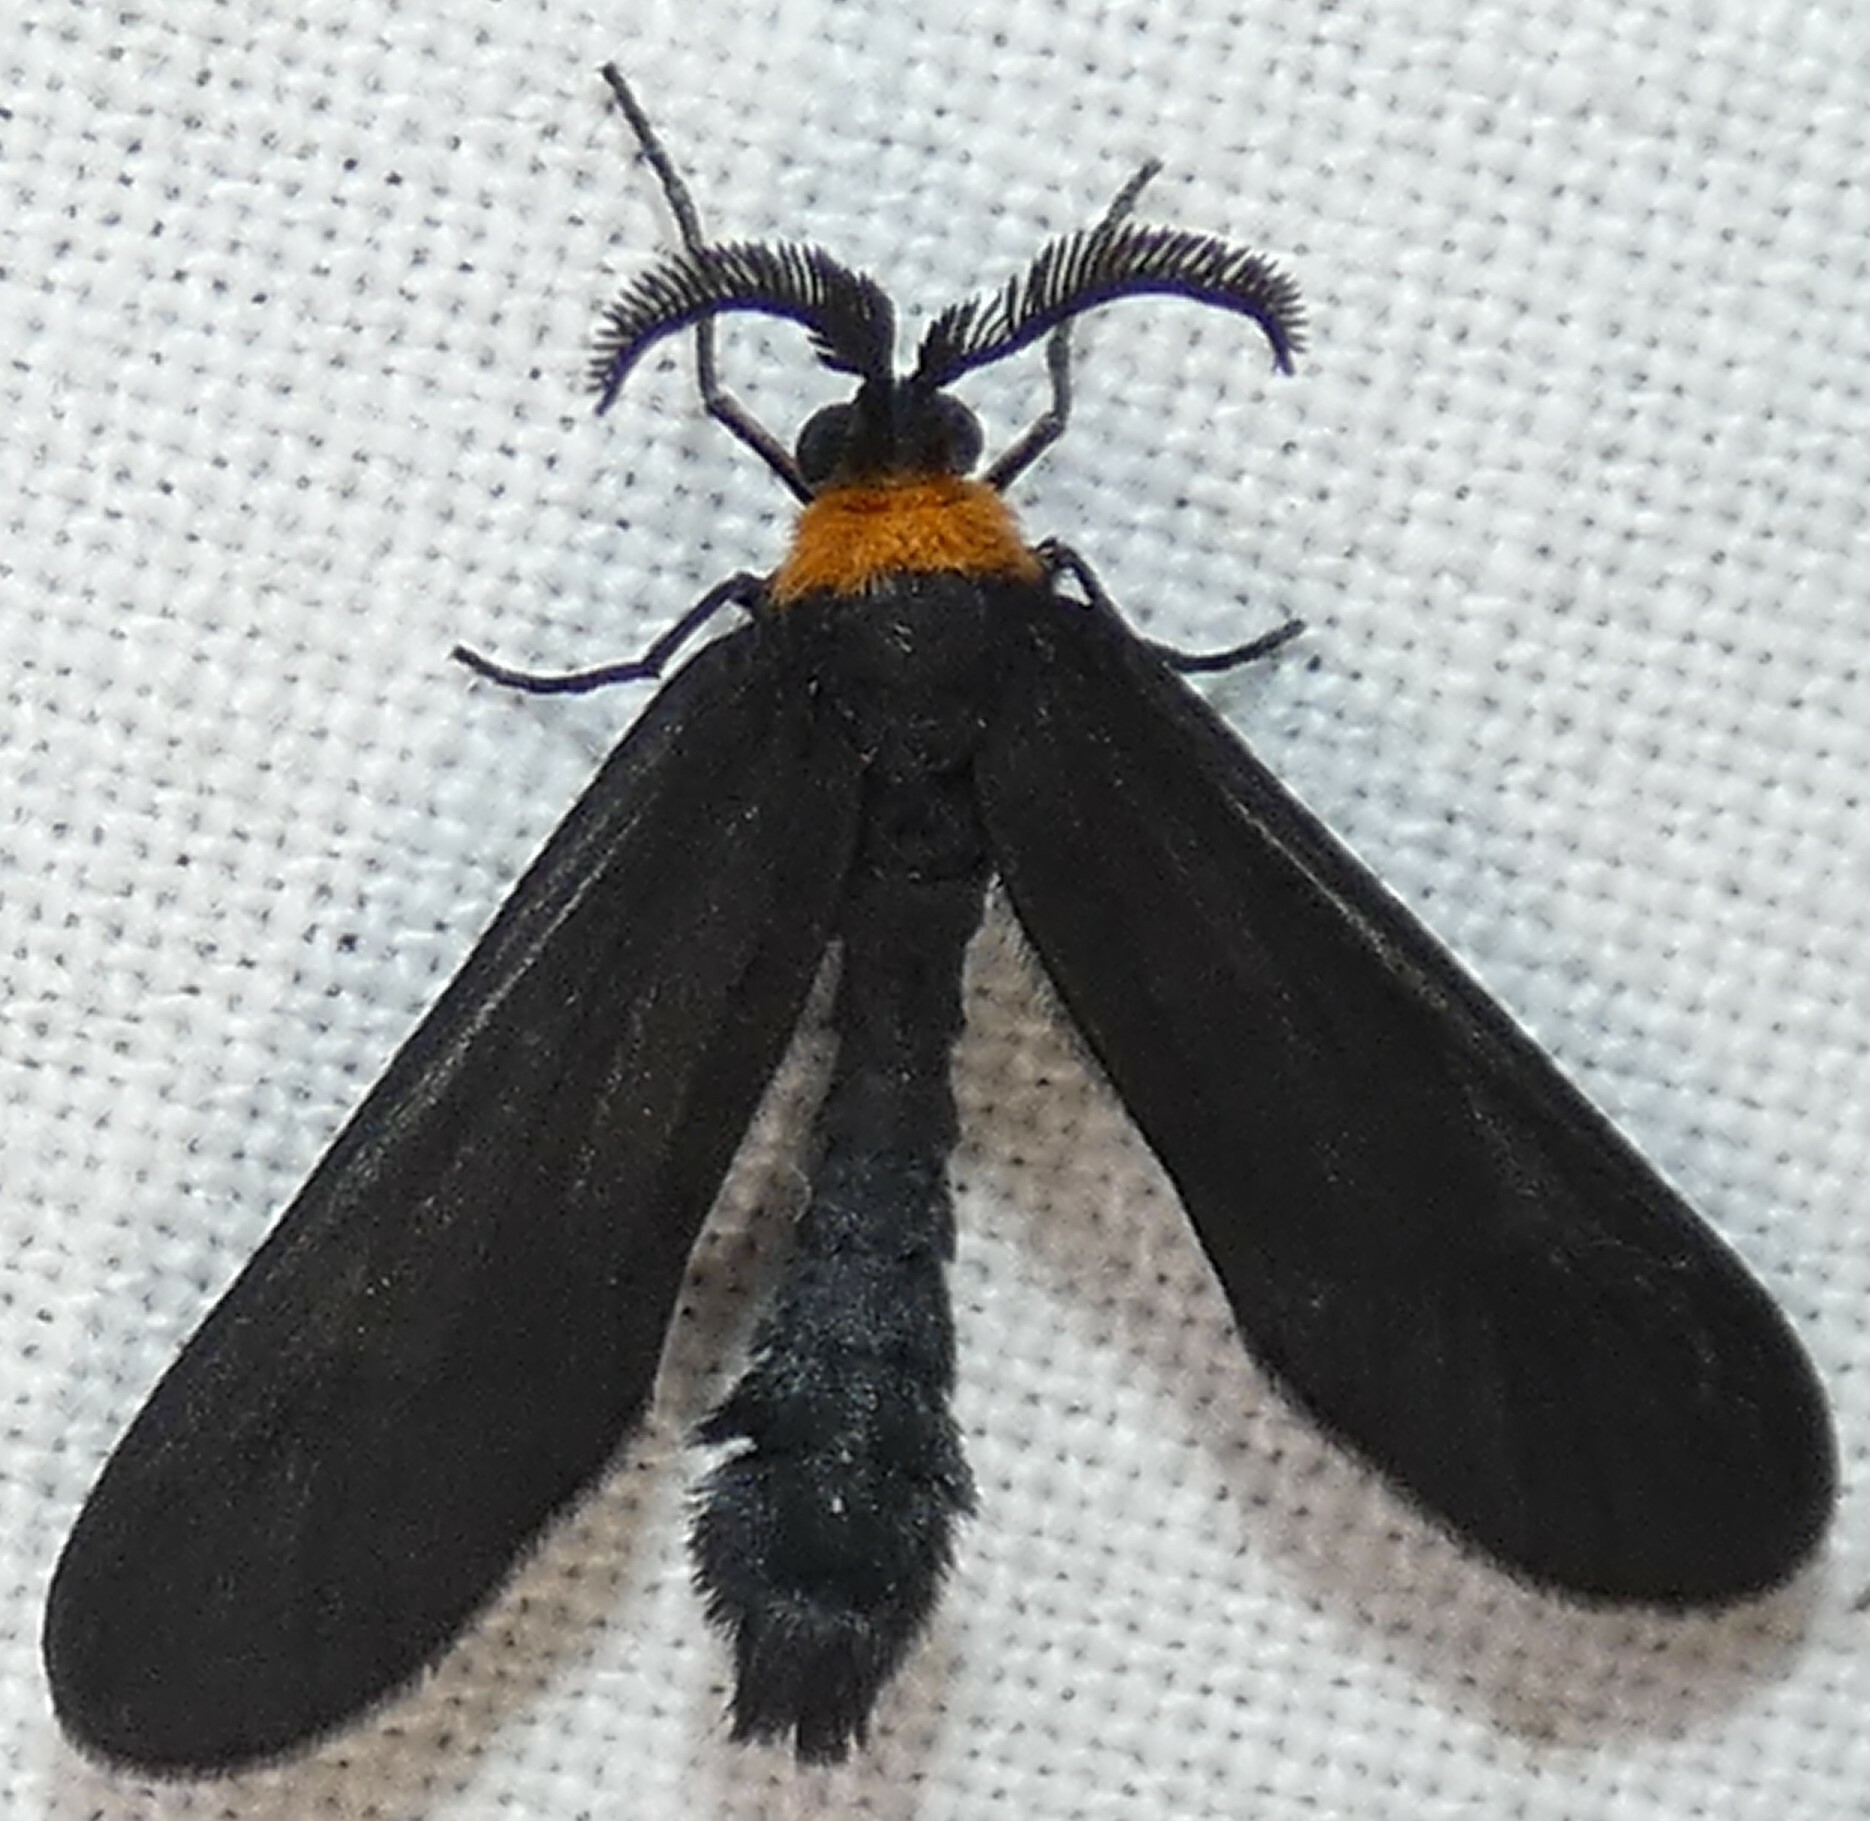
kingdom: Animalia
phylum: Arthropoda
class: Insecta
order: Lepidoptera
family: Zygaenidae
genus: Harrisina
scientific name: Harrisina americana
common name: Grapeleaf skeletonizer moth
